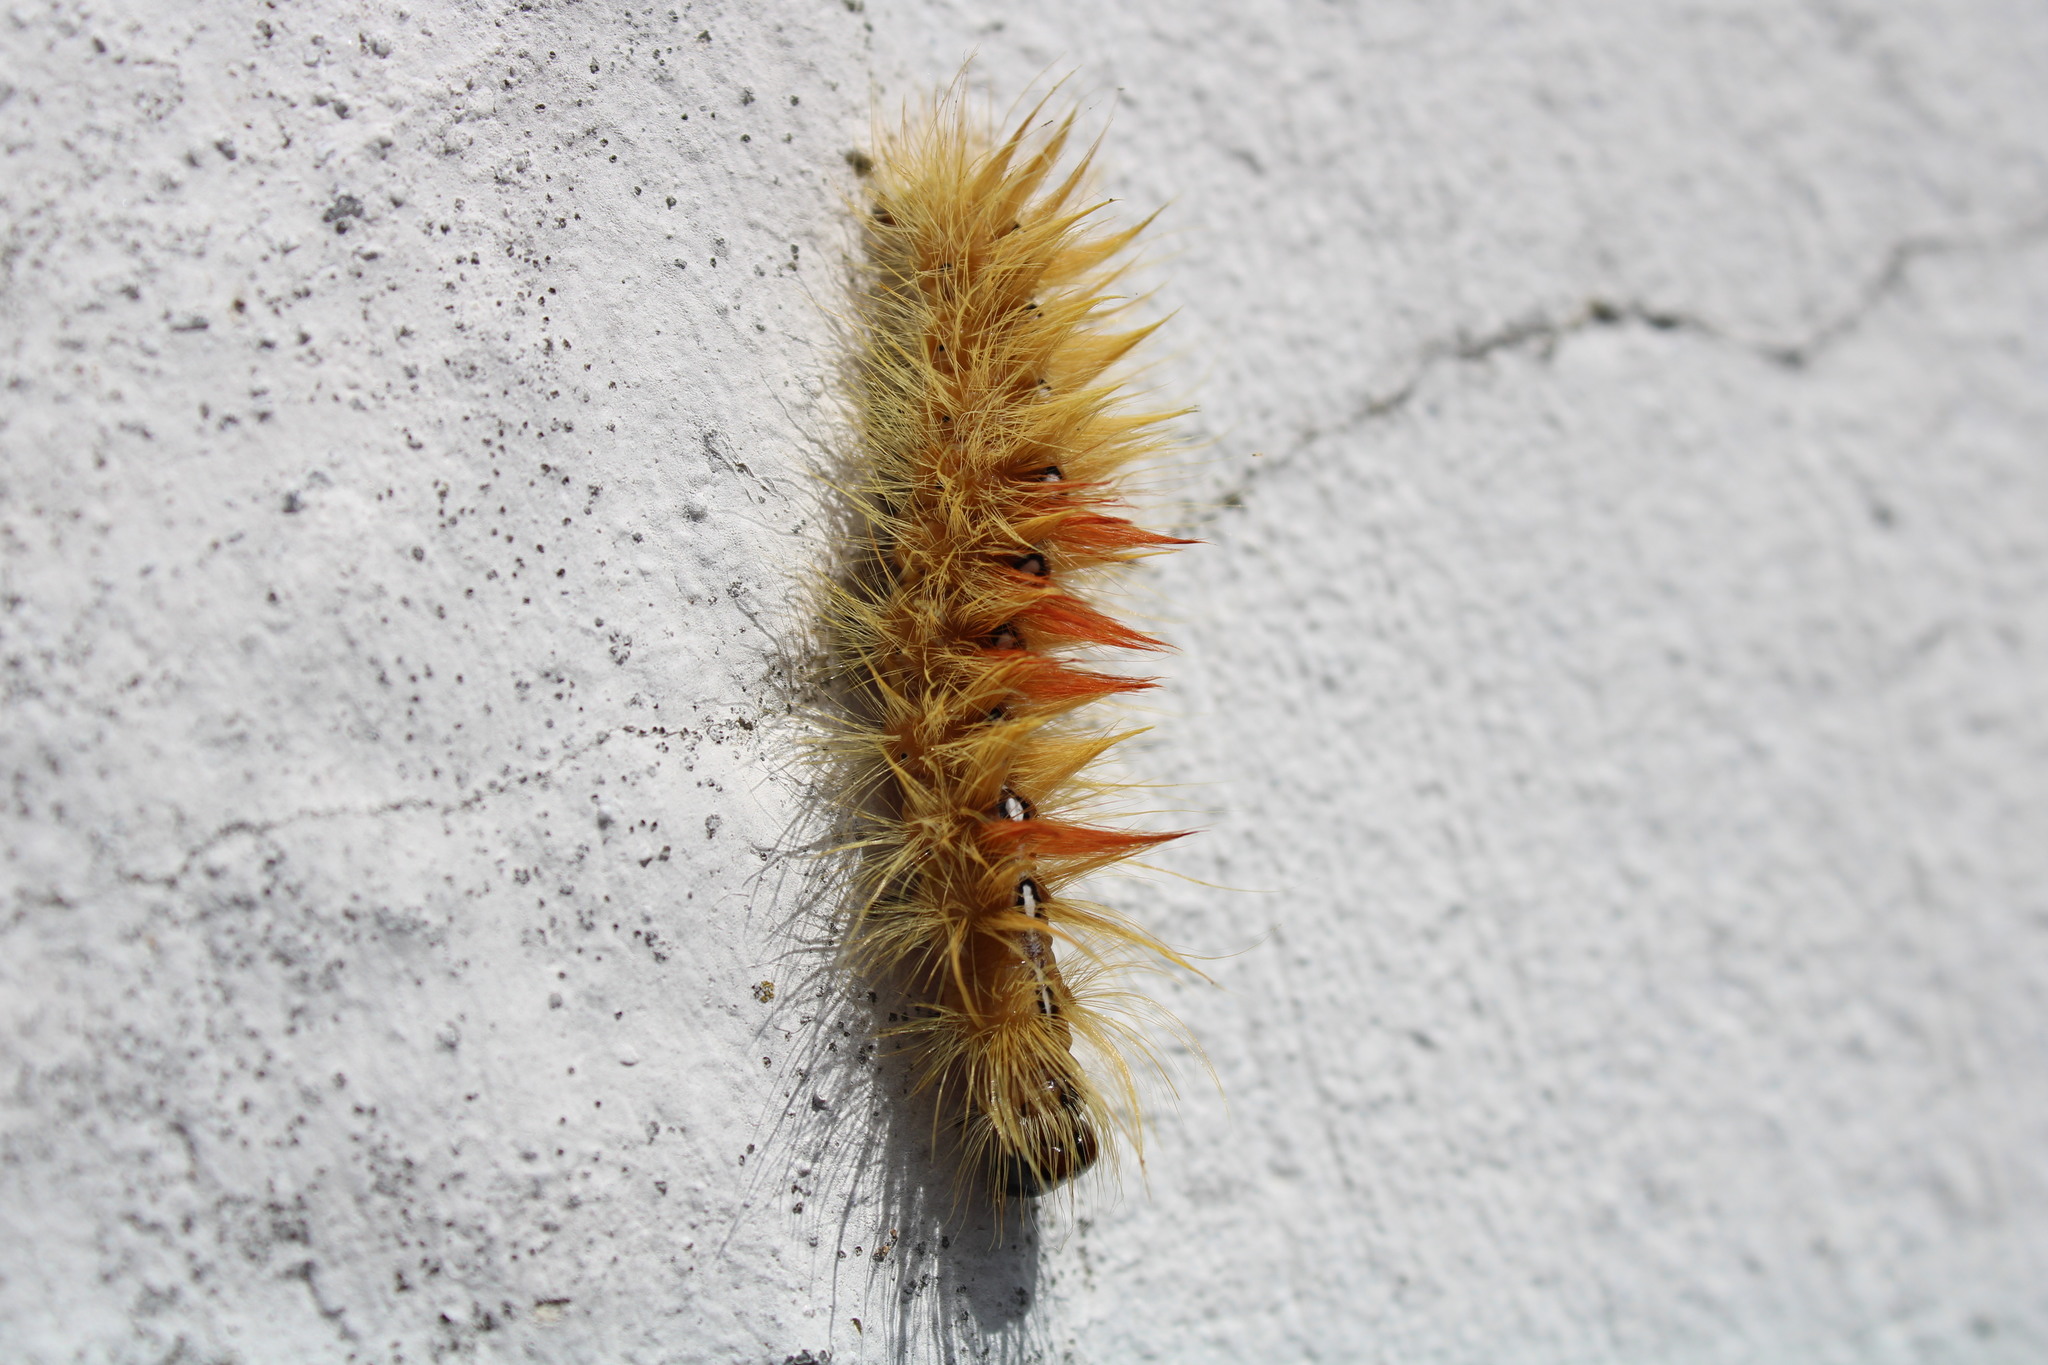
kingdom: Animalia
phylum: Arthropoda
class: Insecta
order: Lepidoptera
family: Noctuidae
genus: Acronicta
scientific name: Acronicta aceris
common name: Sycamore
